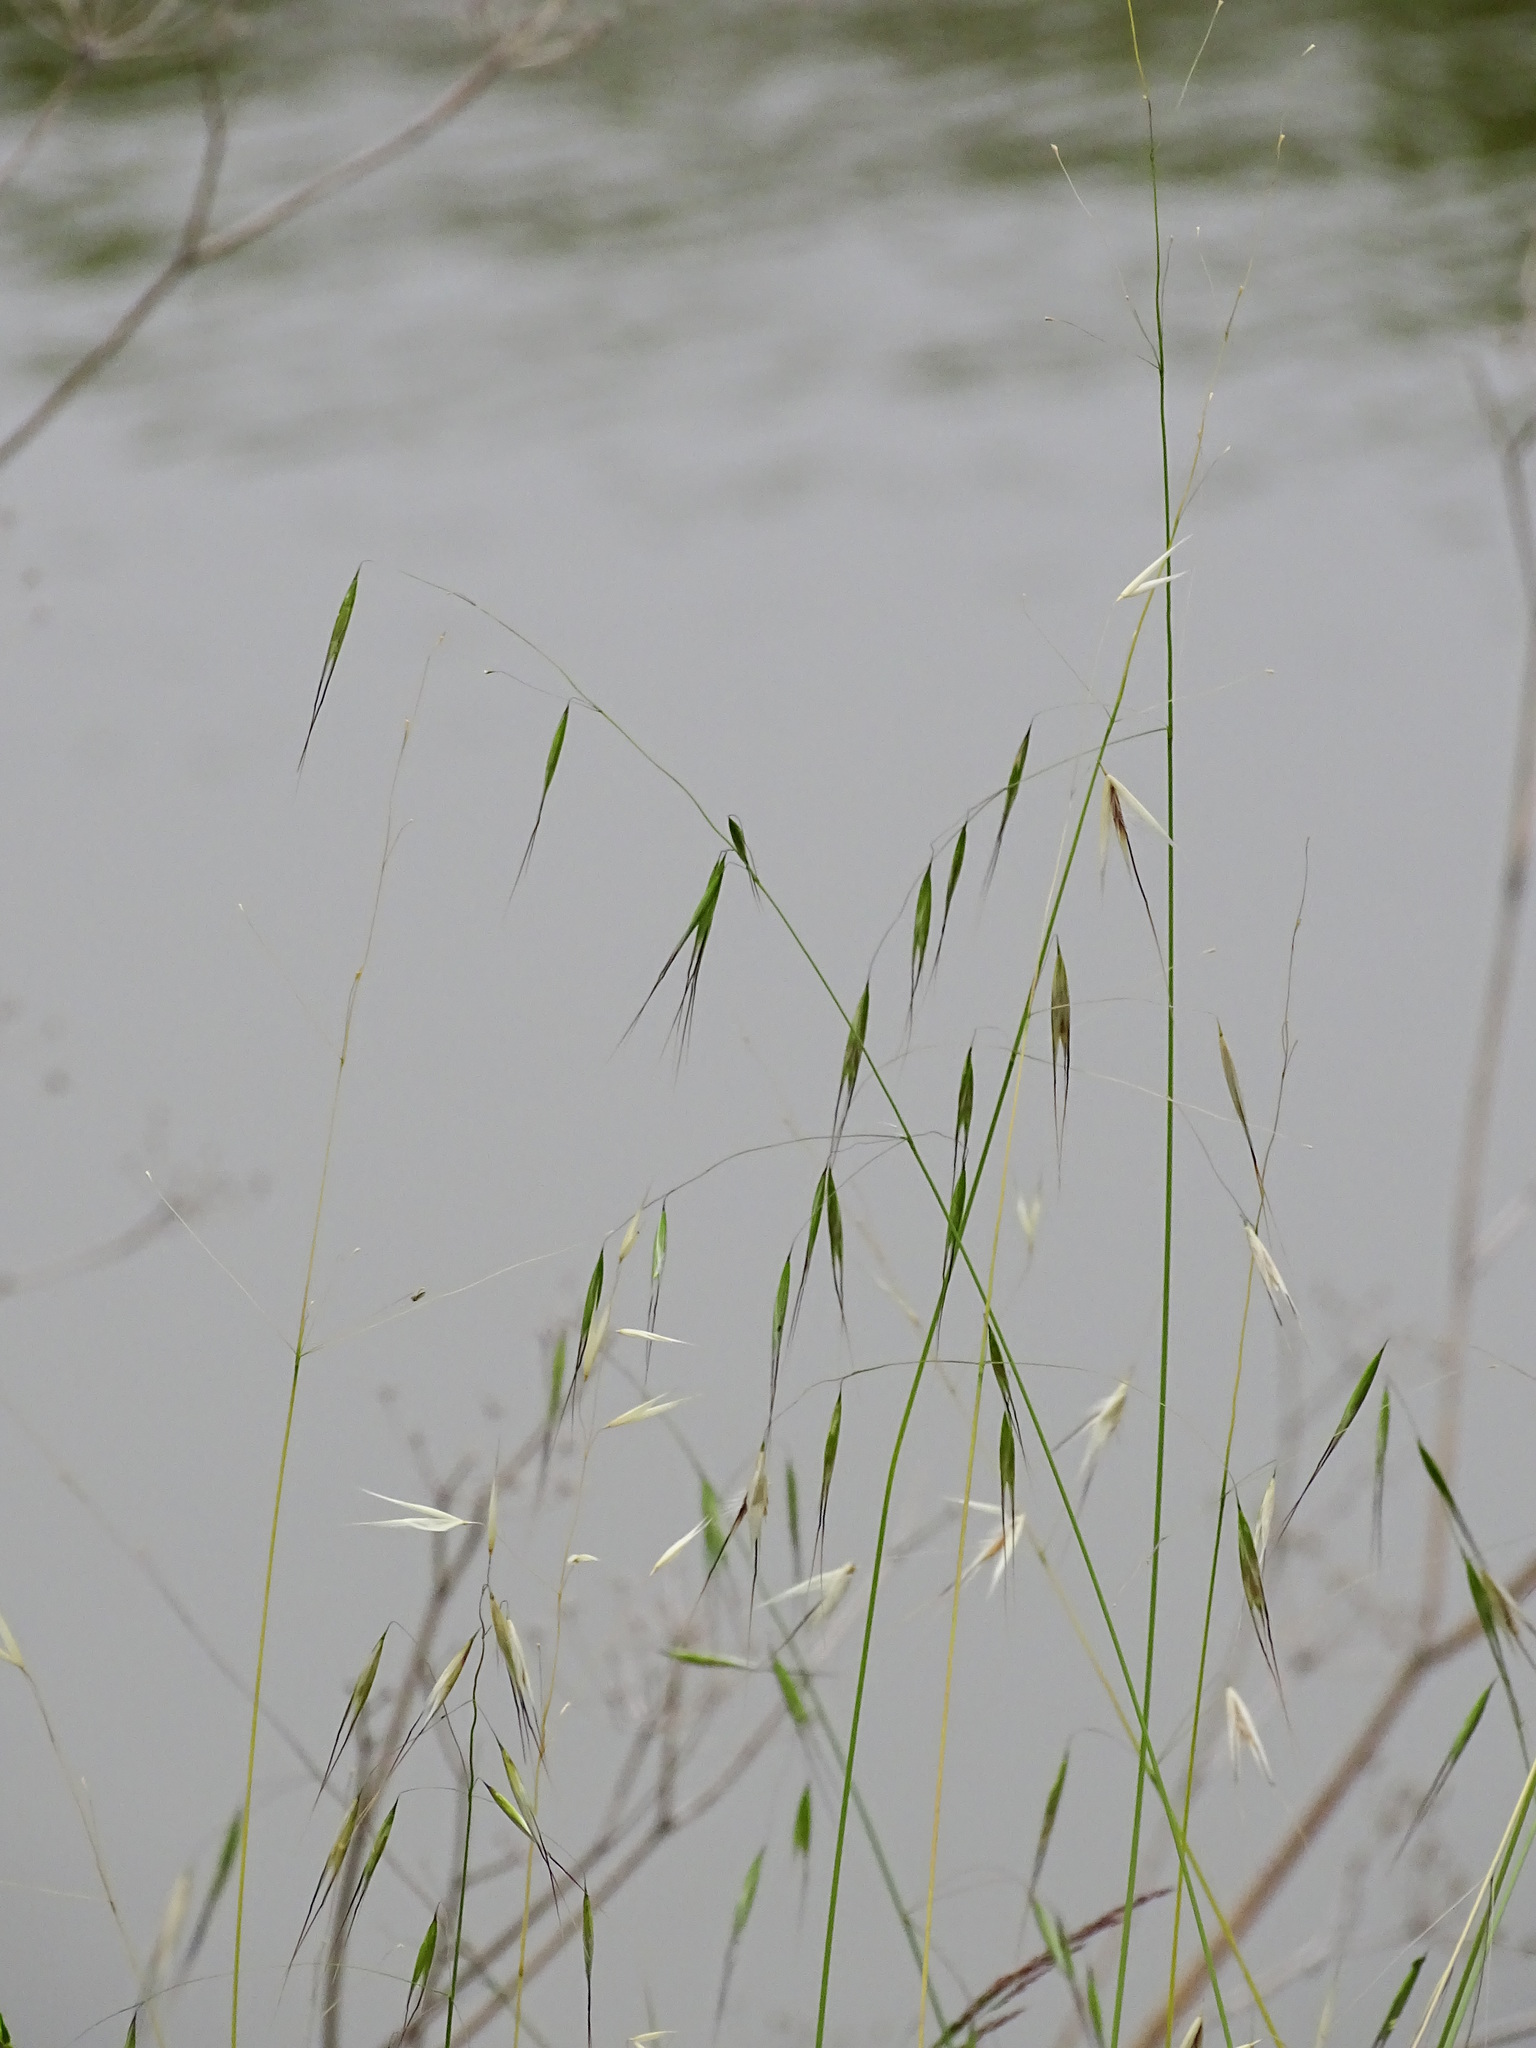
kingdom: Plantae
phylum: Tracheophyta
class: Liliopsida
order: Poales
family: Poaceae
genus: Avena
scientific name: Avena barbata
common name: Slender oat
